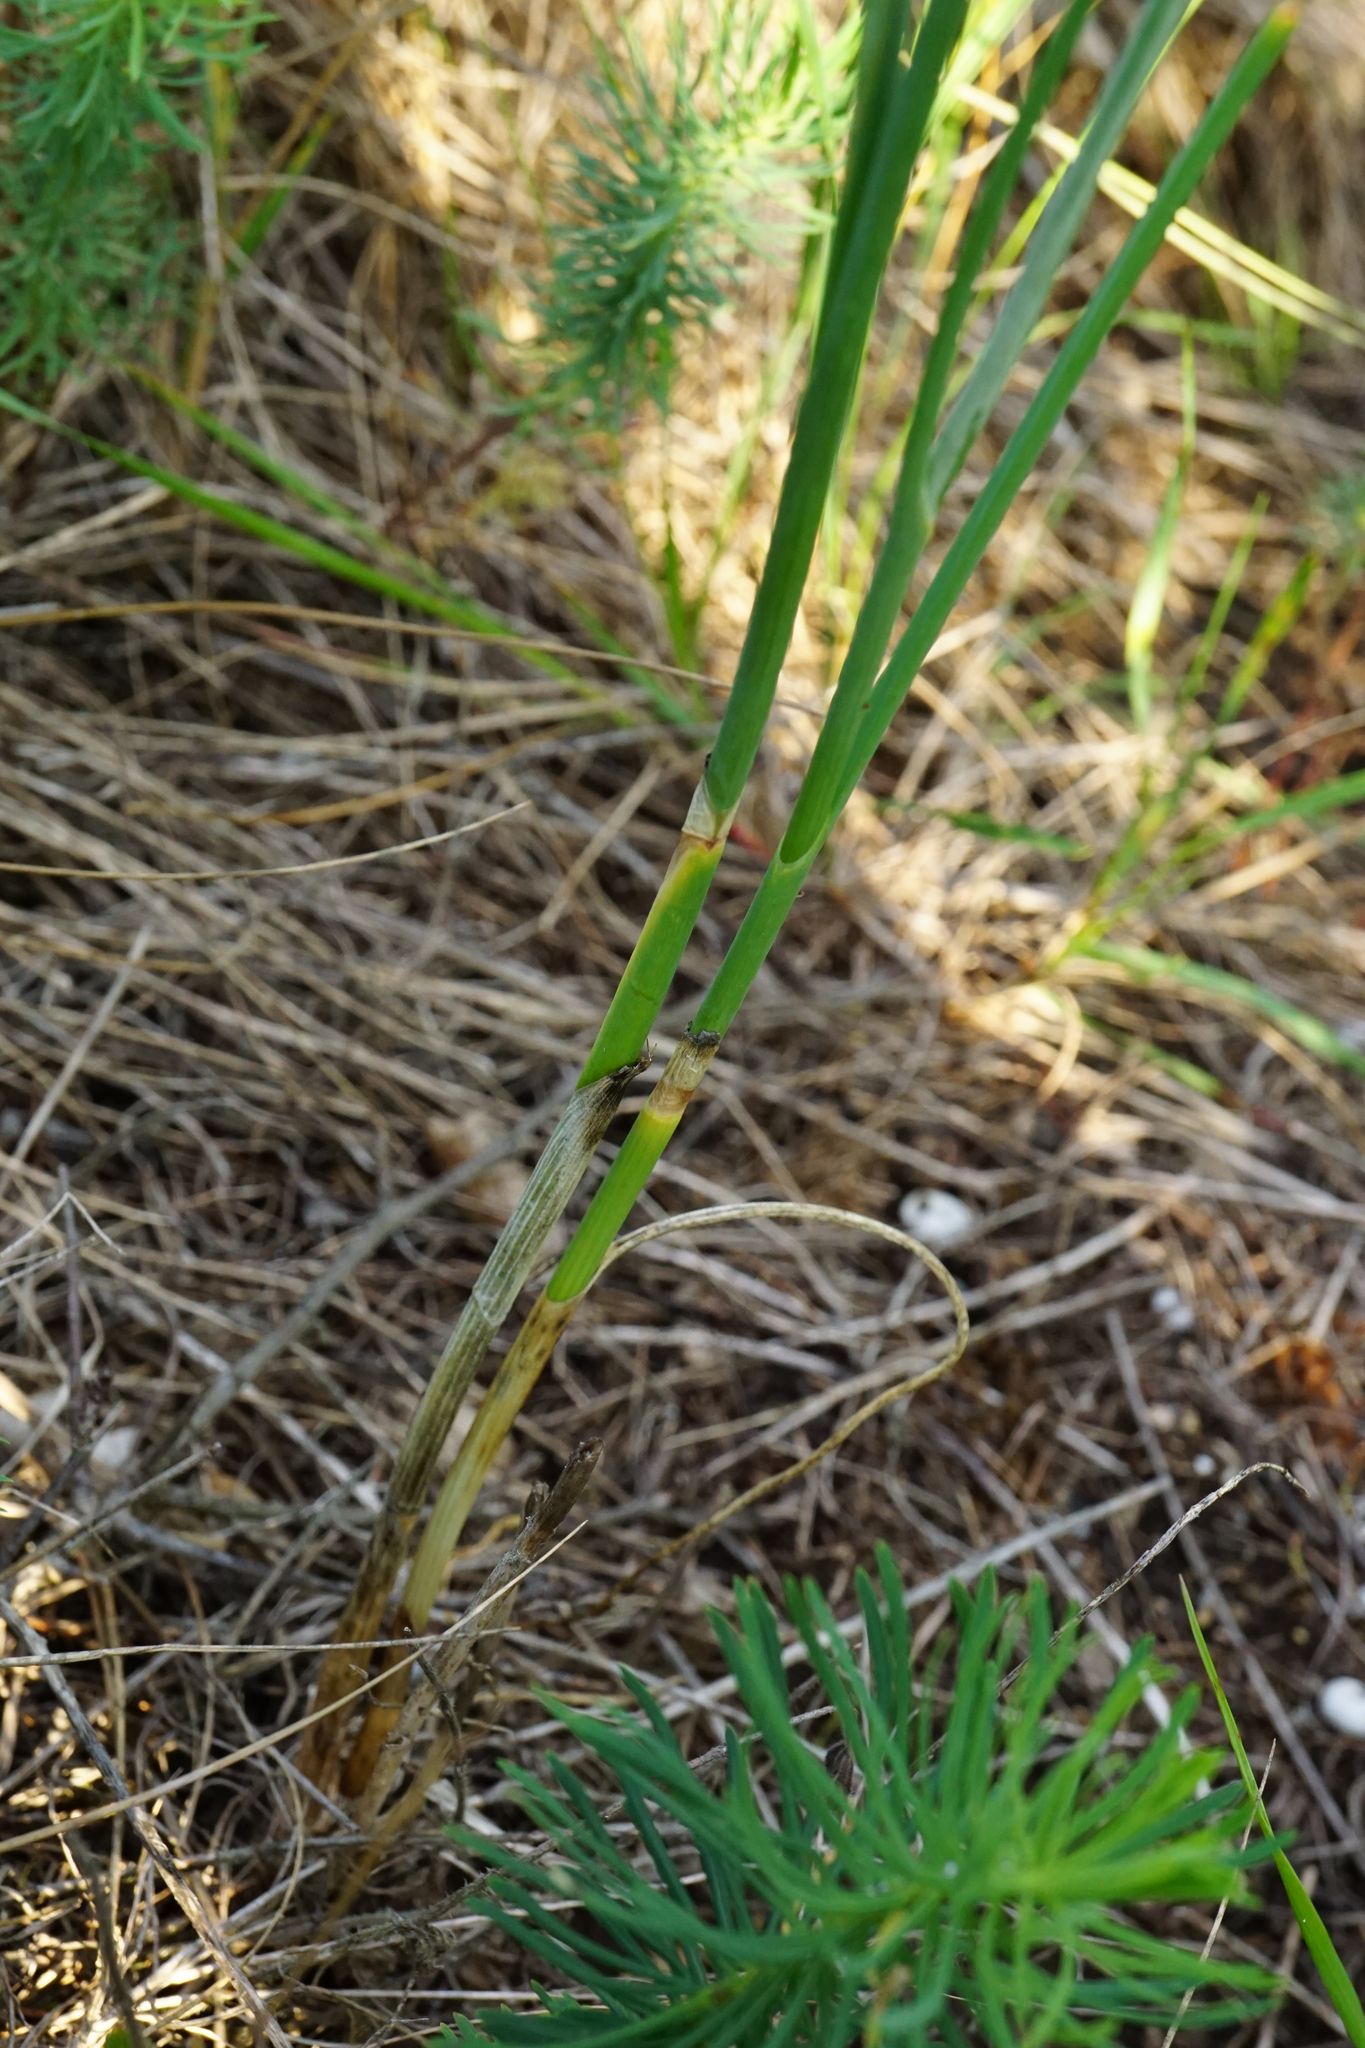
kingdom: Plantae
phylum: Tracheophyta
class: Liliopsida
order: Asparagales
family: Amaryllidaceae
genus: Allium
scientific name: Allium flavum
